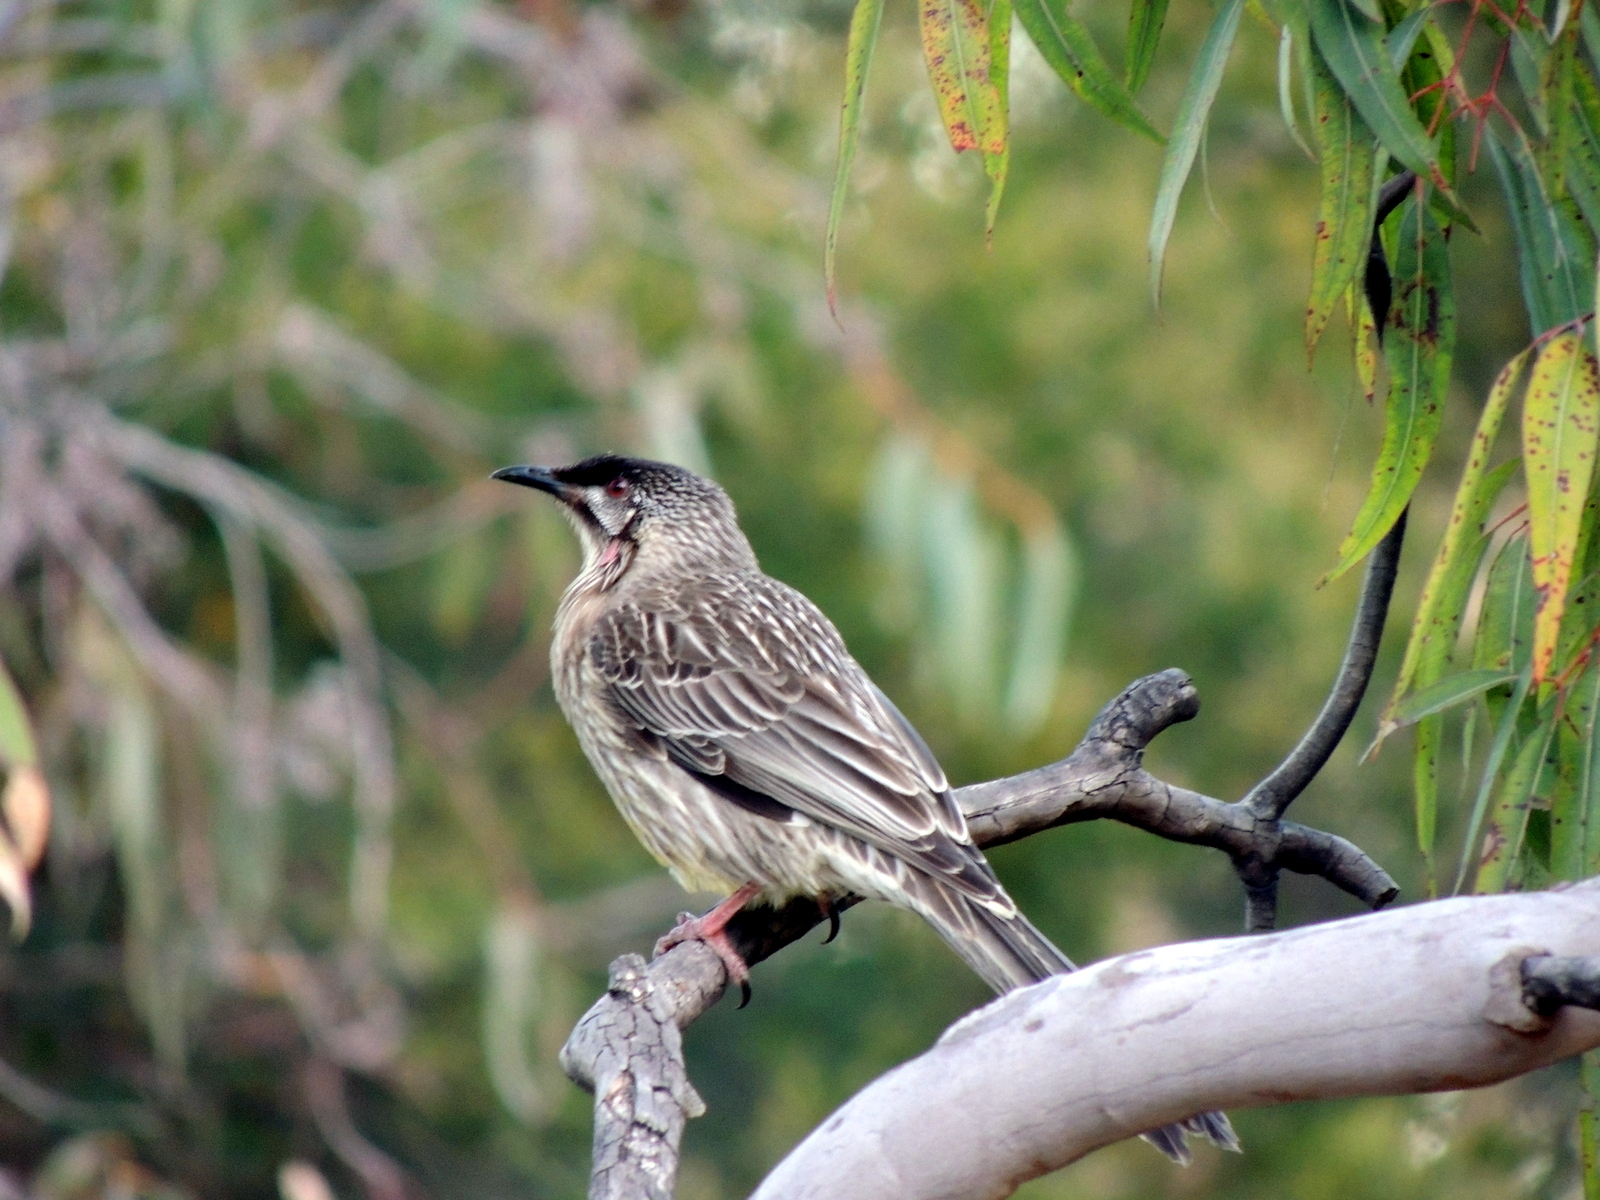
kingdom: Animalia
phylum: Chordata
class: Aves
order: Passeriformes
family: Meliphagidae
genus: Anthochaera
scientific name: Anthochaera carunculata
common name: Red wattlebird
